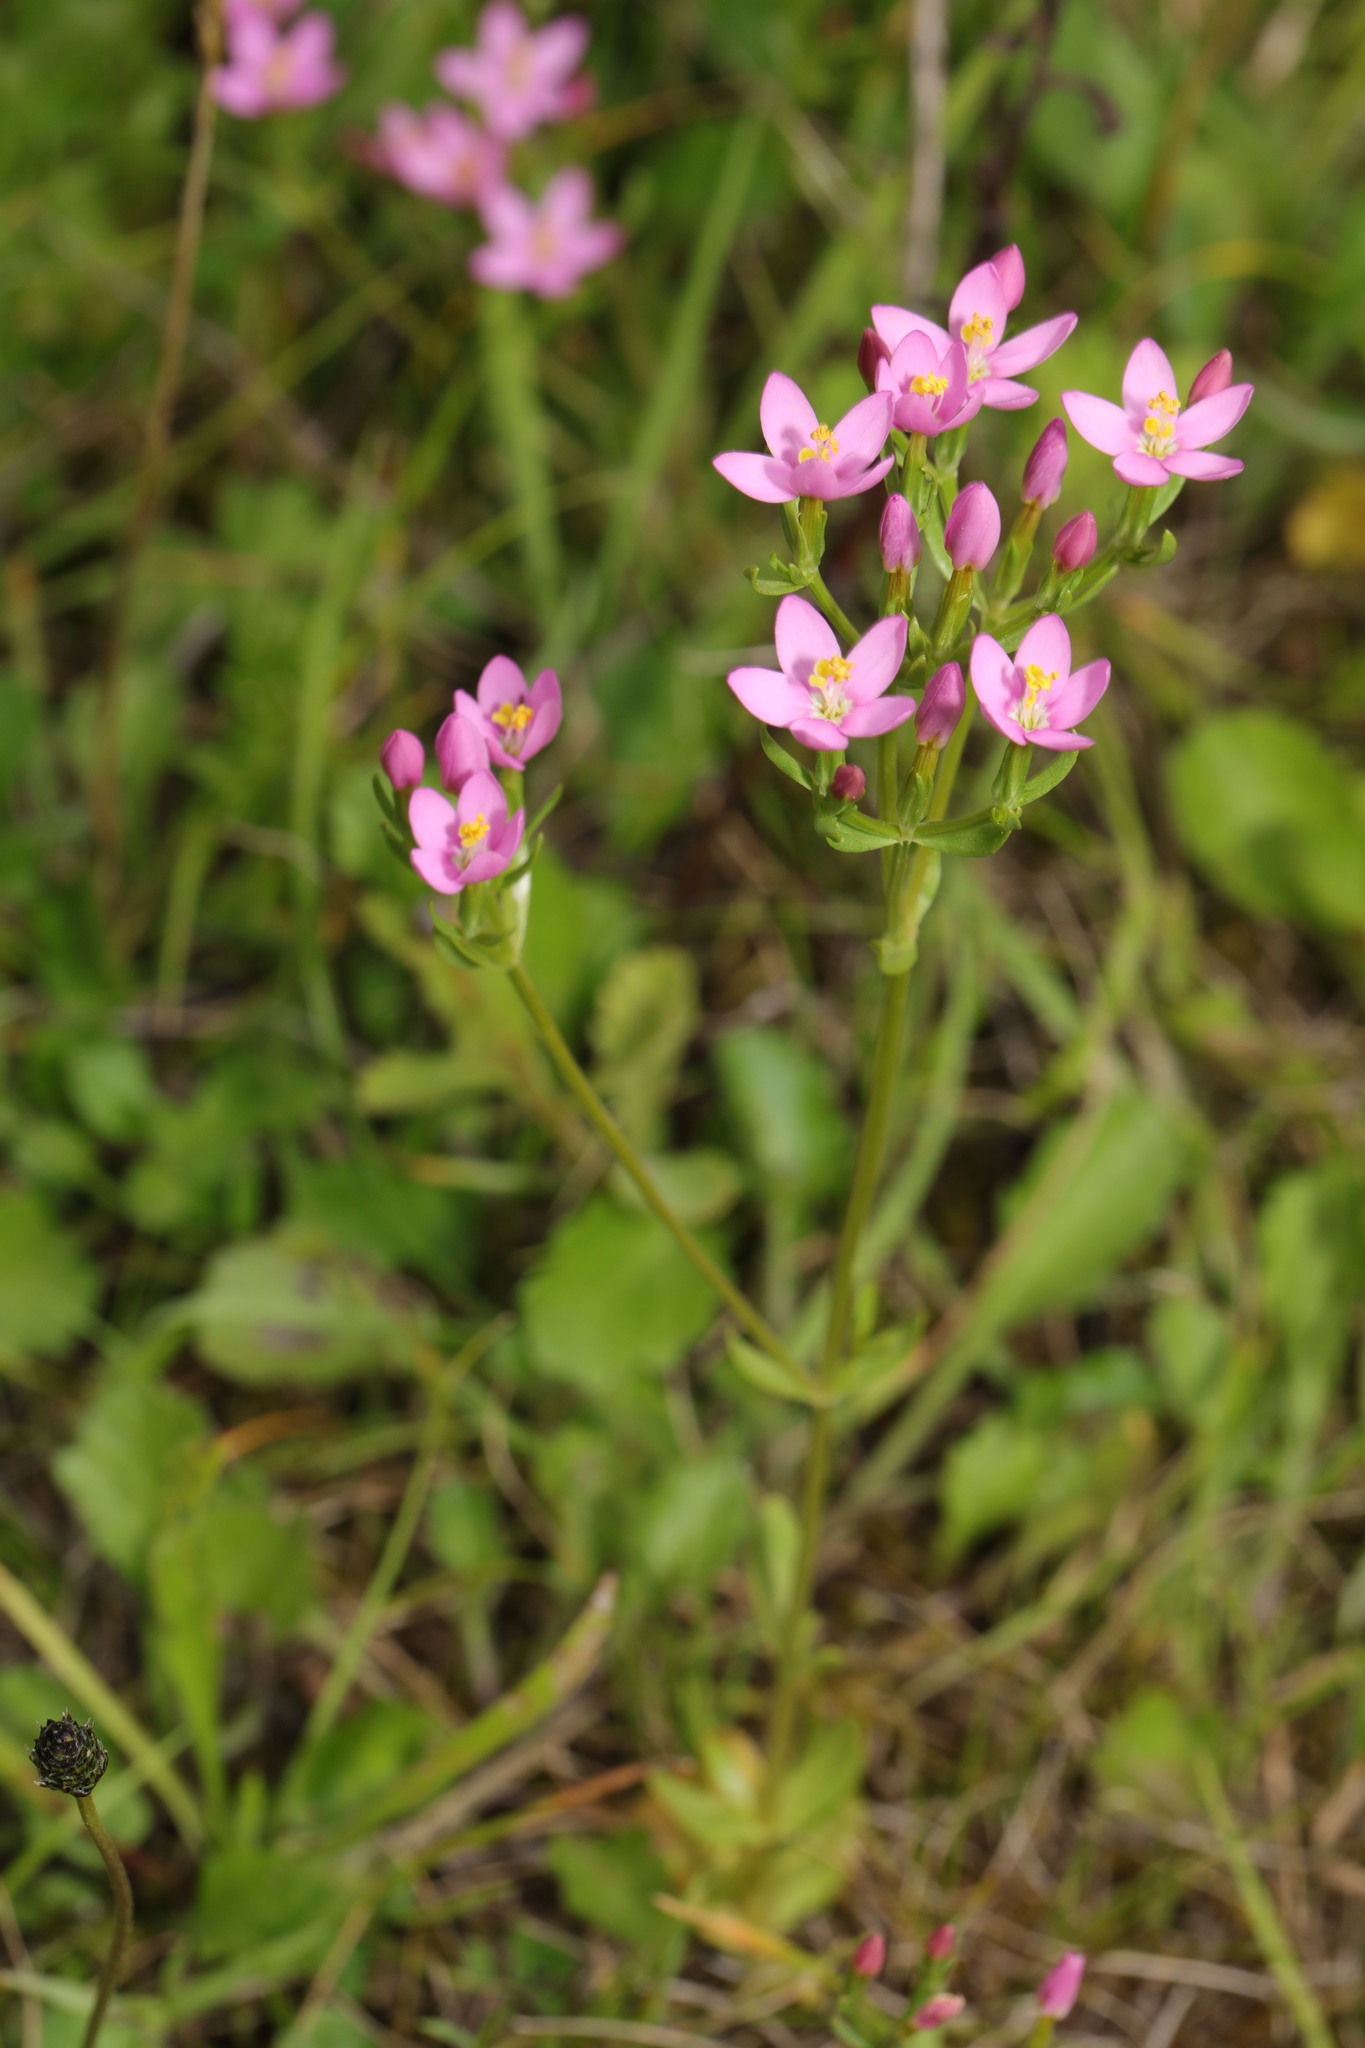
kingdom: Plantae
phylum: Tracheophyta
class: Magnoliopsida
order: Gentianales
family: Gentianaceae
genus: Centaurium
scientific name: Centaurium erythraea
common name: Common centaury
